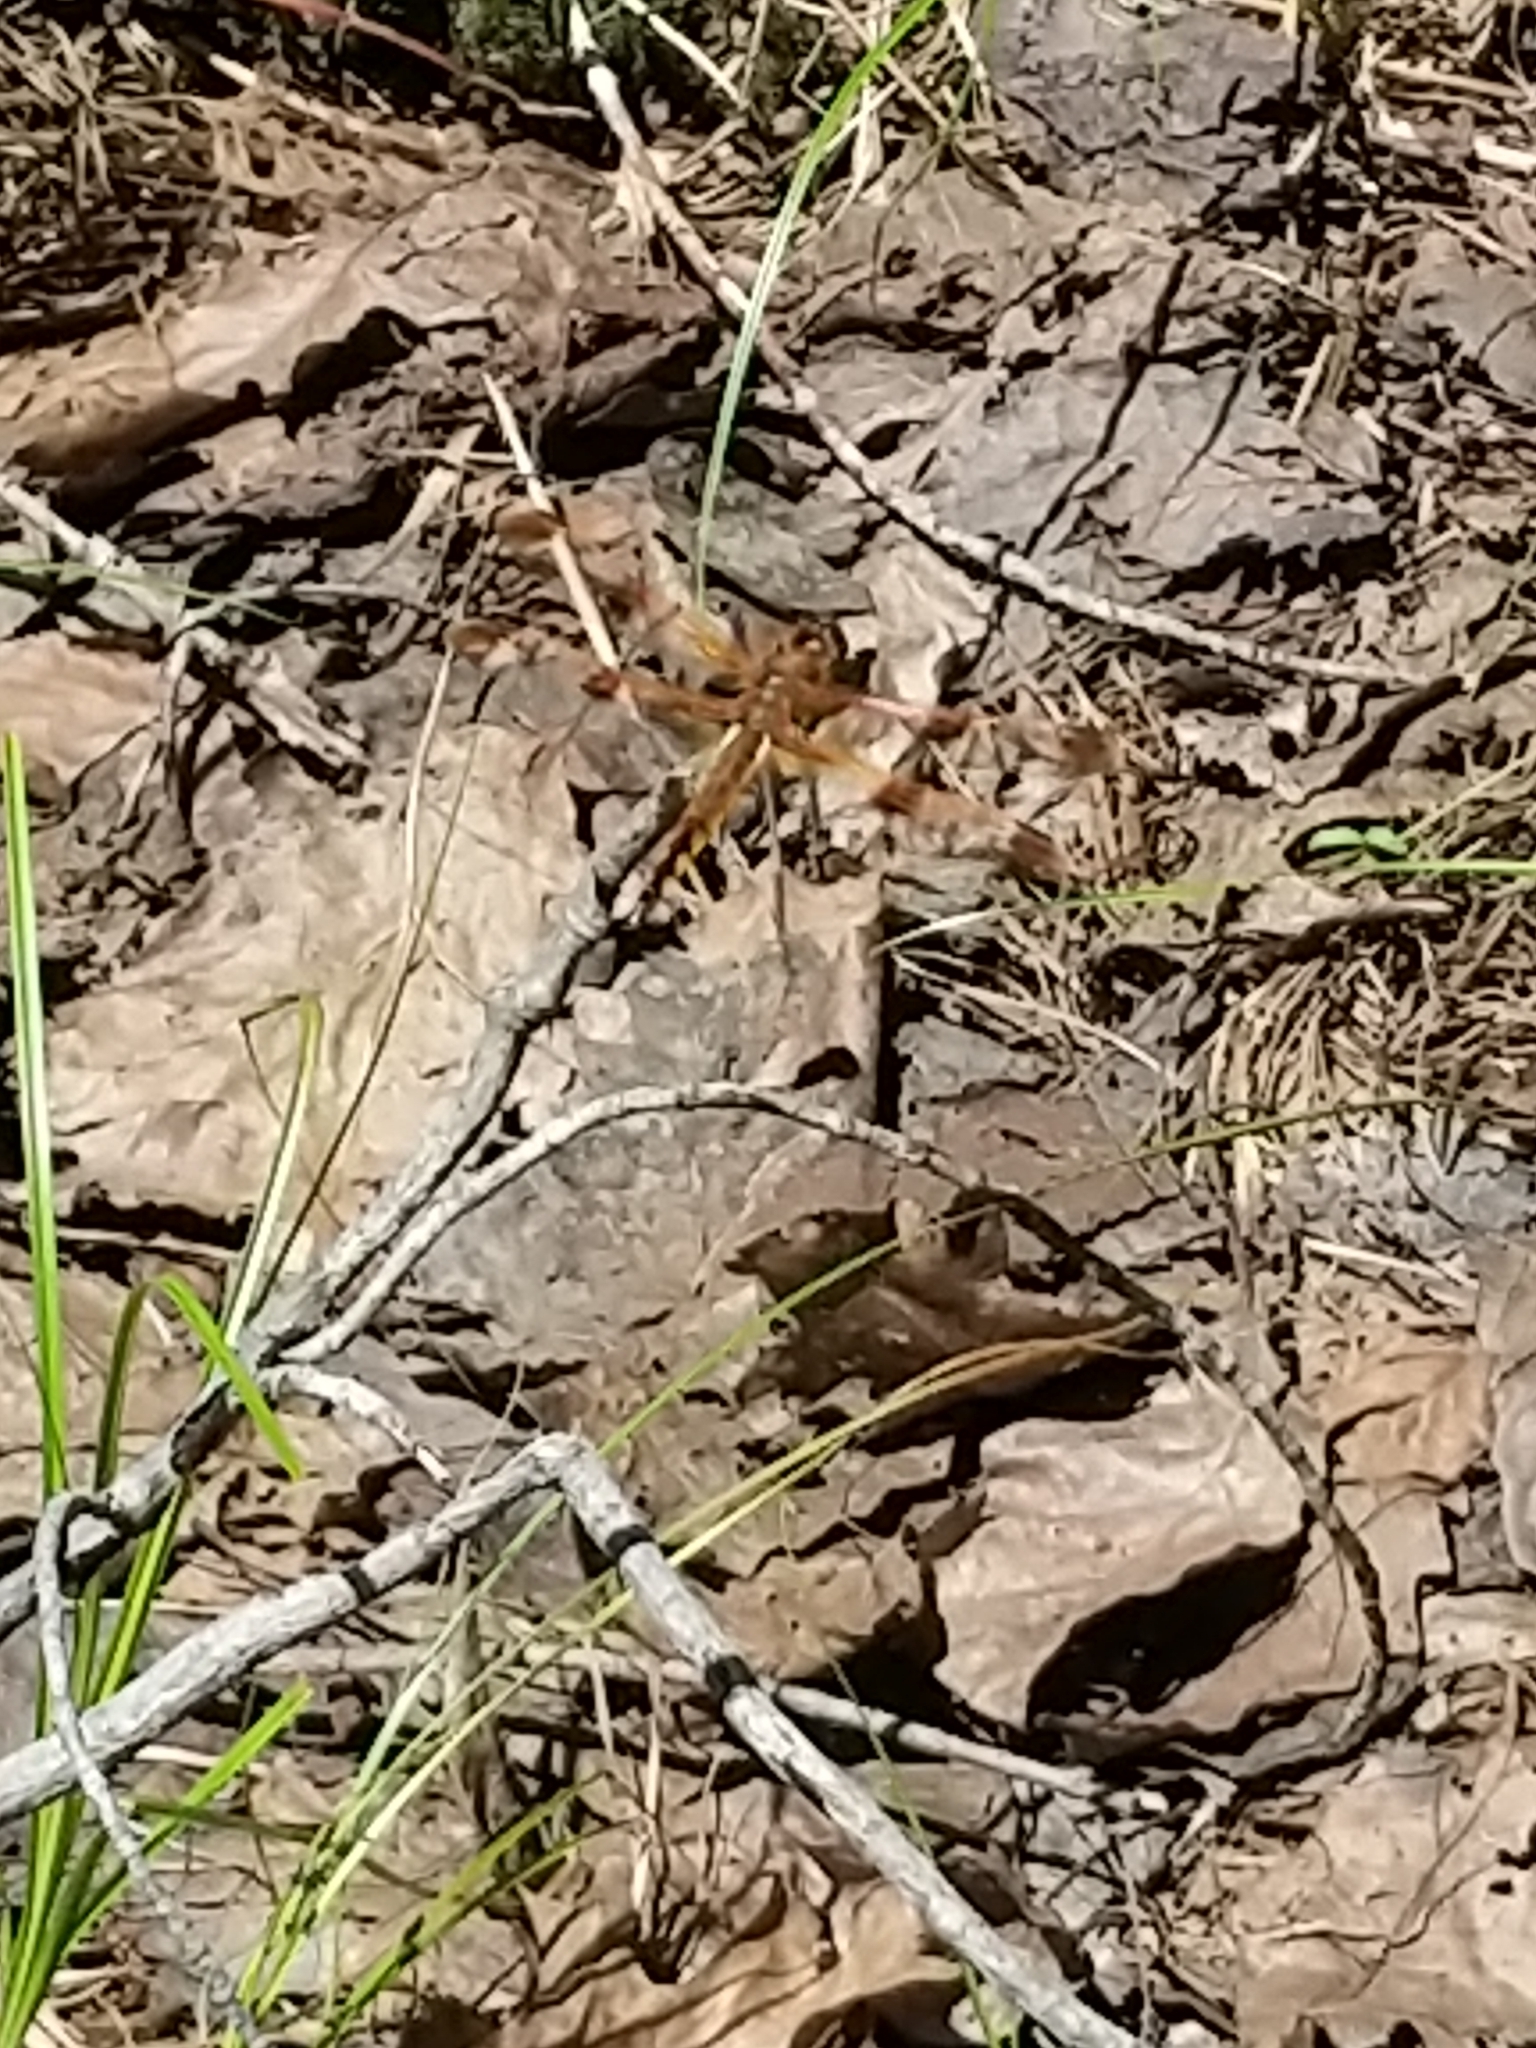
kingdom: Animalia
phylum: Arthropoda
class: Insecta
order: Odonata
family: Libellulidae
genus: Libellula
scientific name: Libellula semifasciata
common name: Painted skimmer
